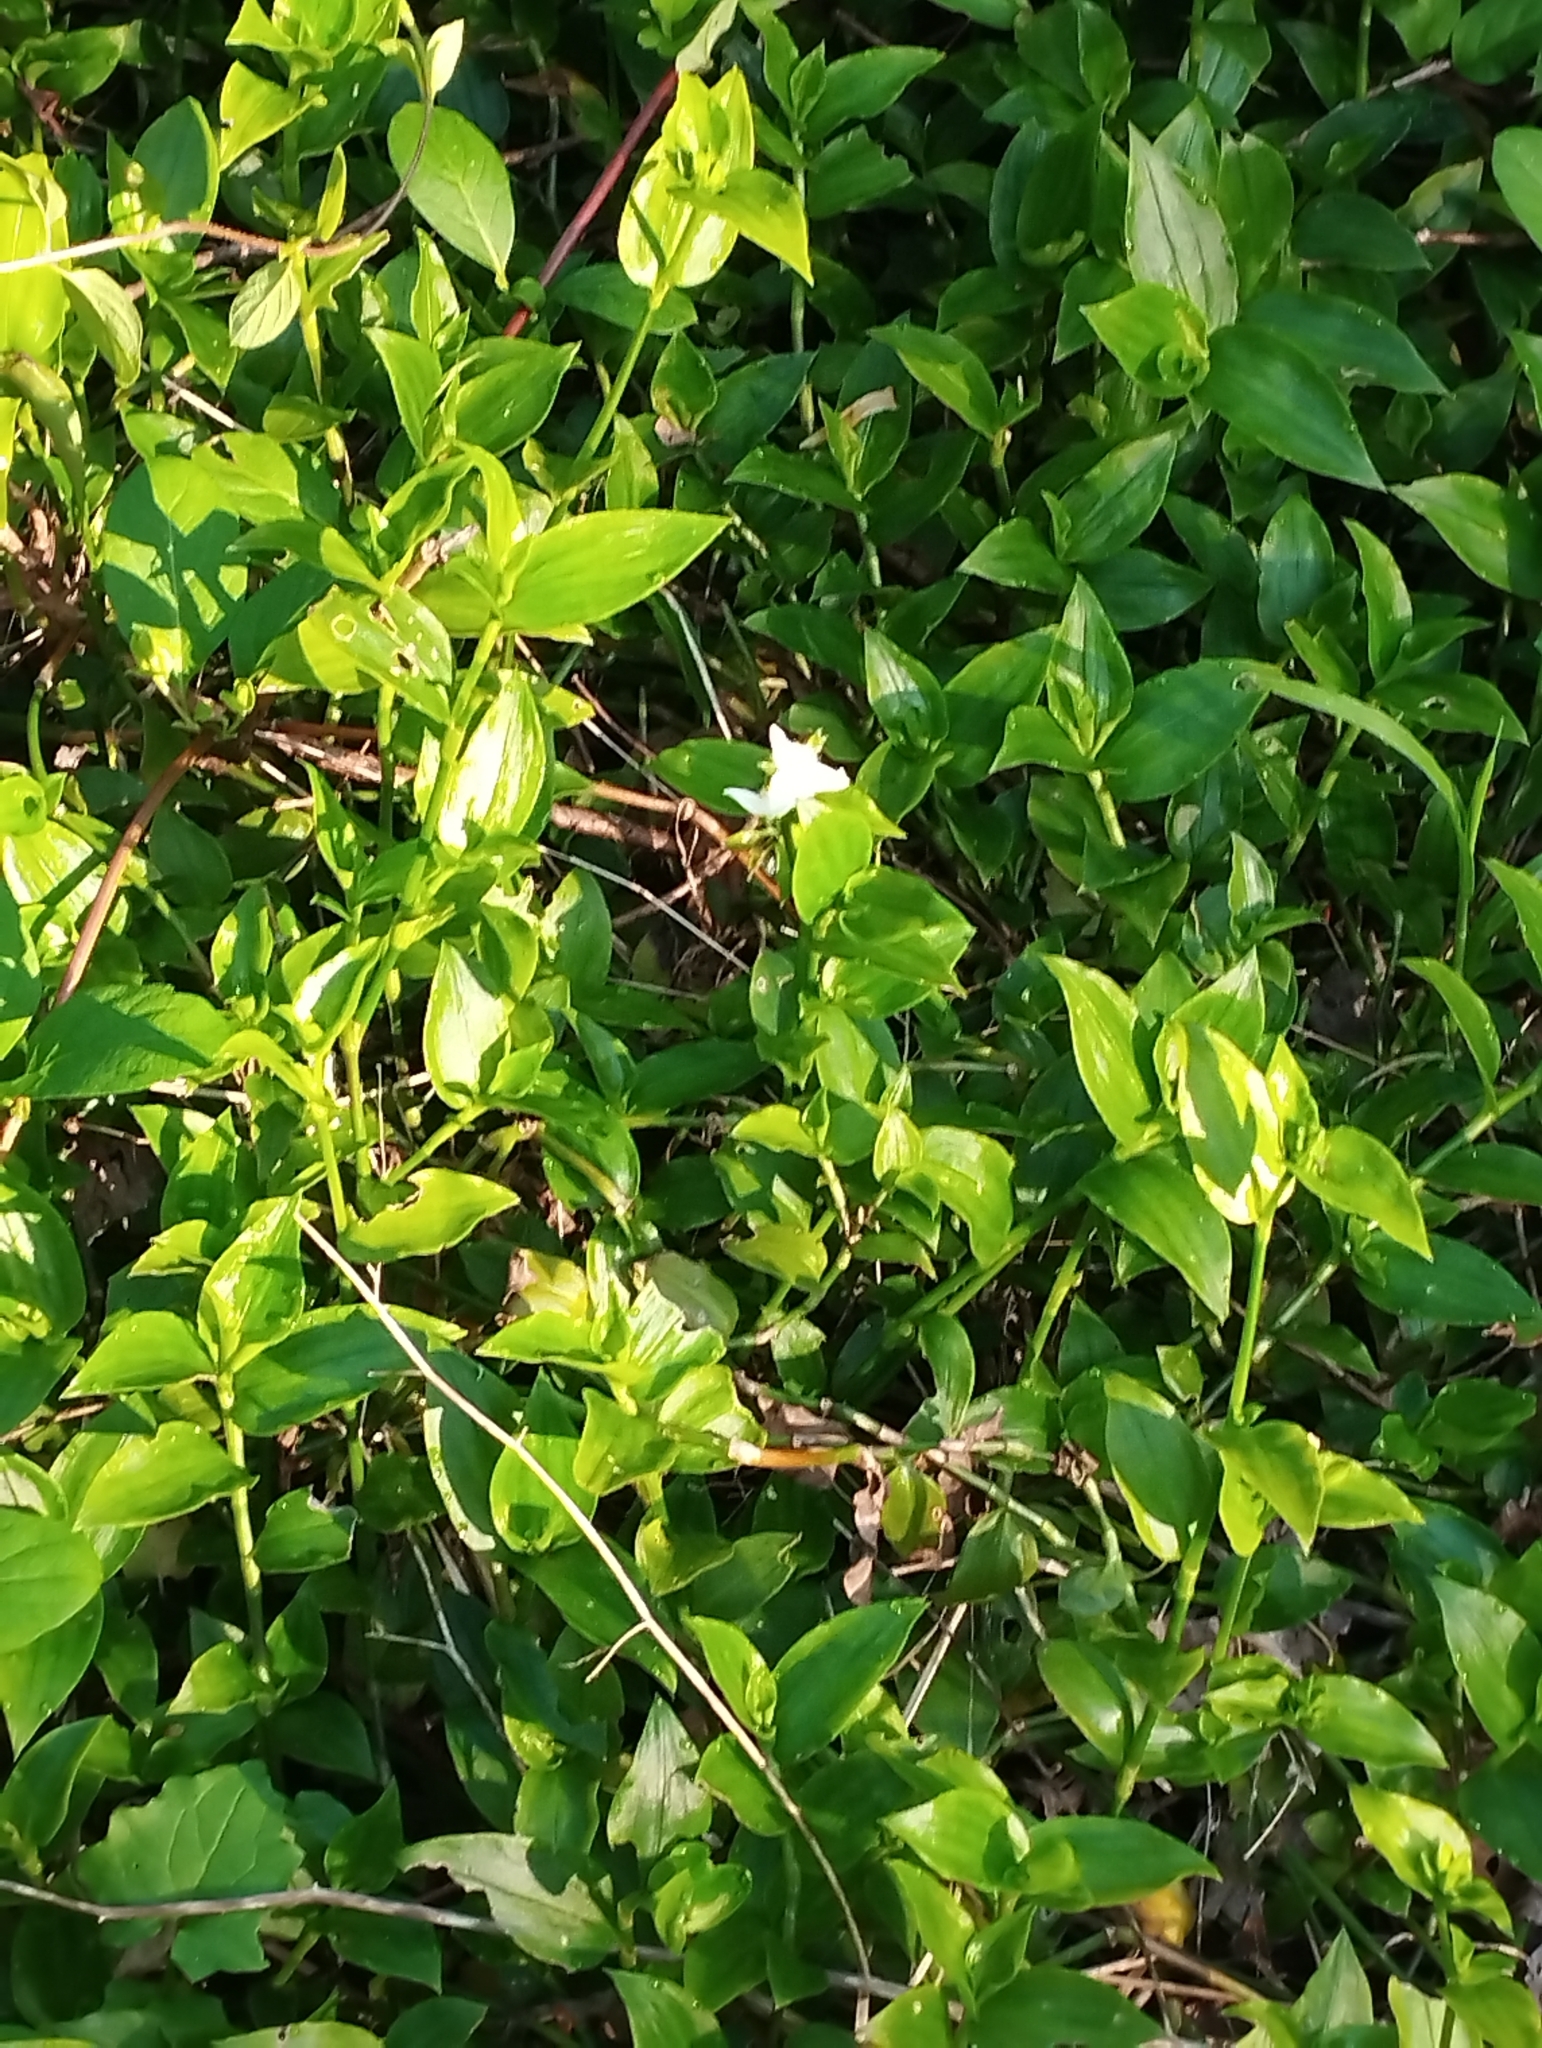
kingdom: Plantae
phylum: Tracheophyta
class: Liliopsida
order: Commelinales
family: Commelinaceae
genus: Tradescantia
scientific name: Tradescantia fluminensis
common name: Wandering-jew
